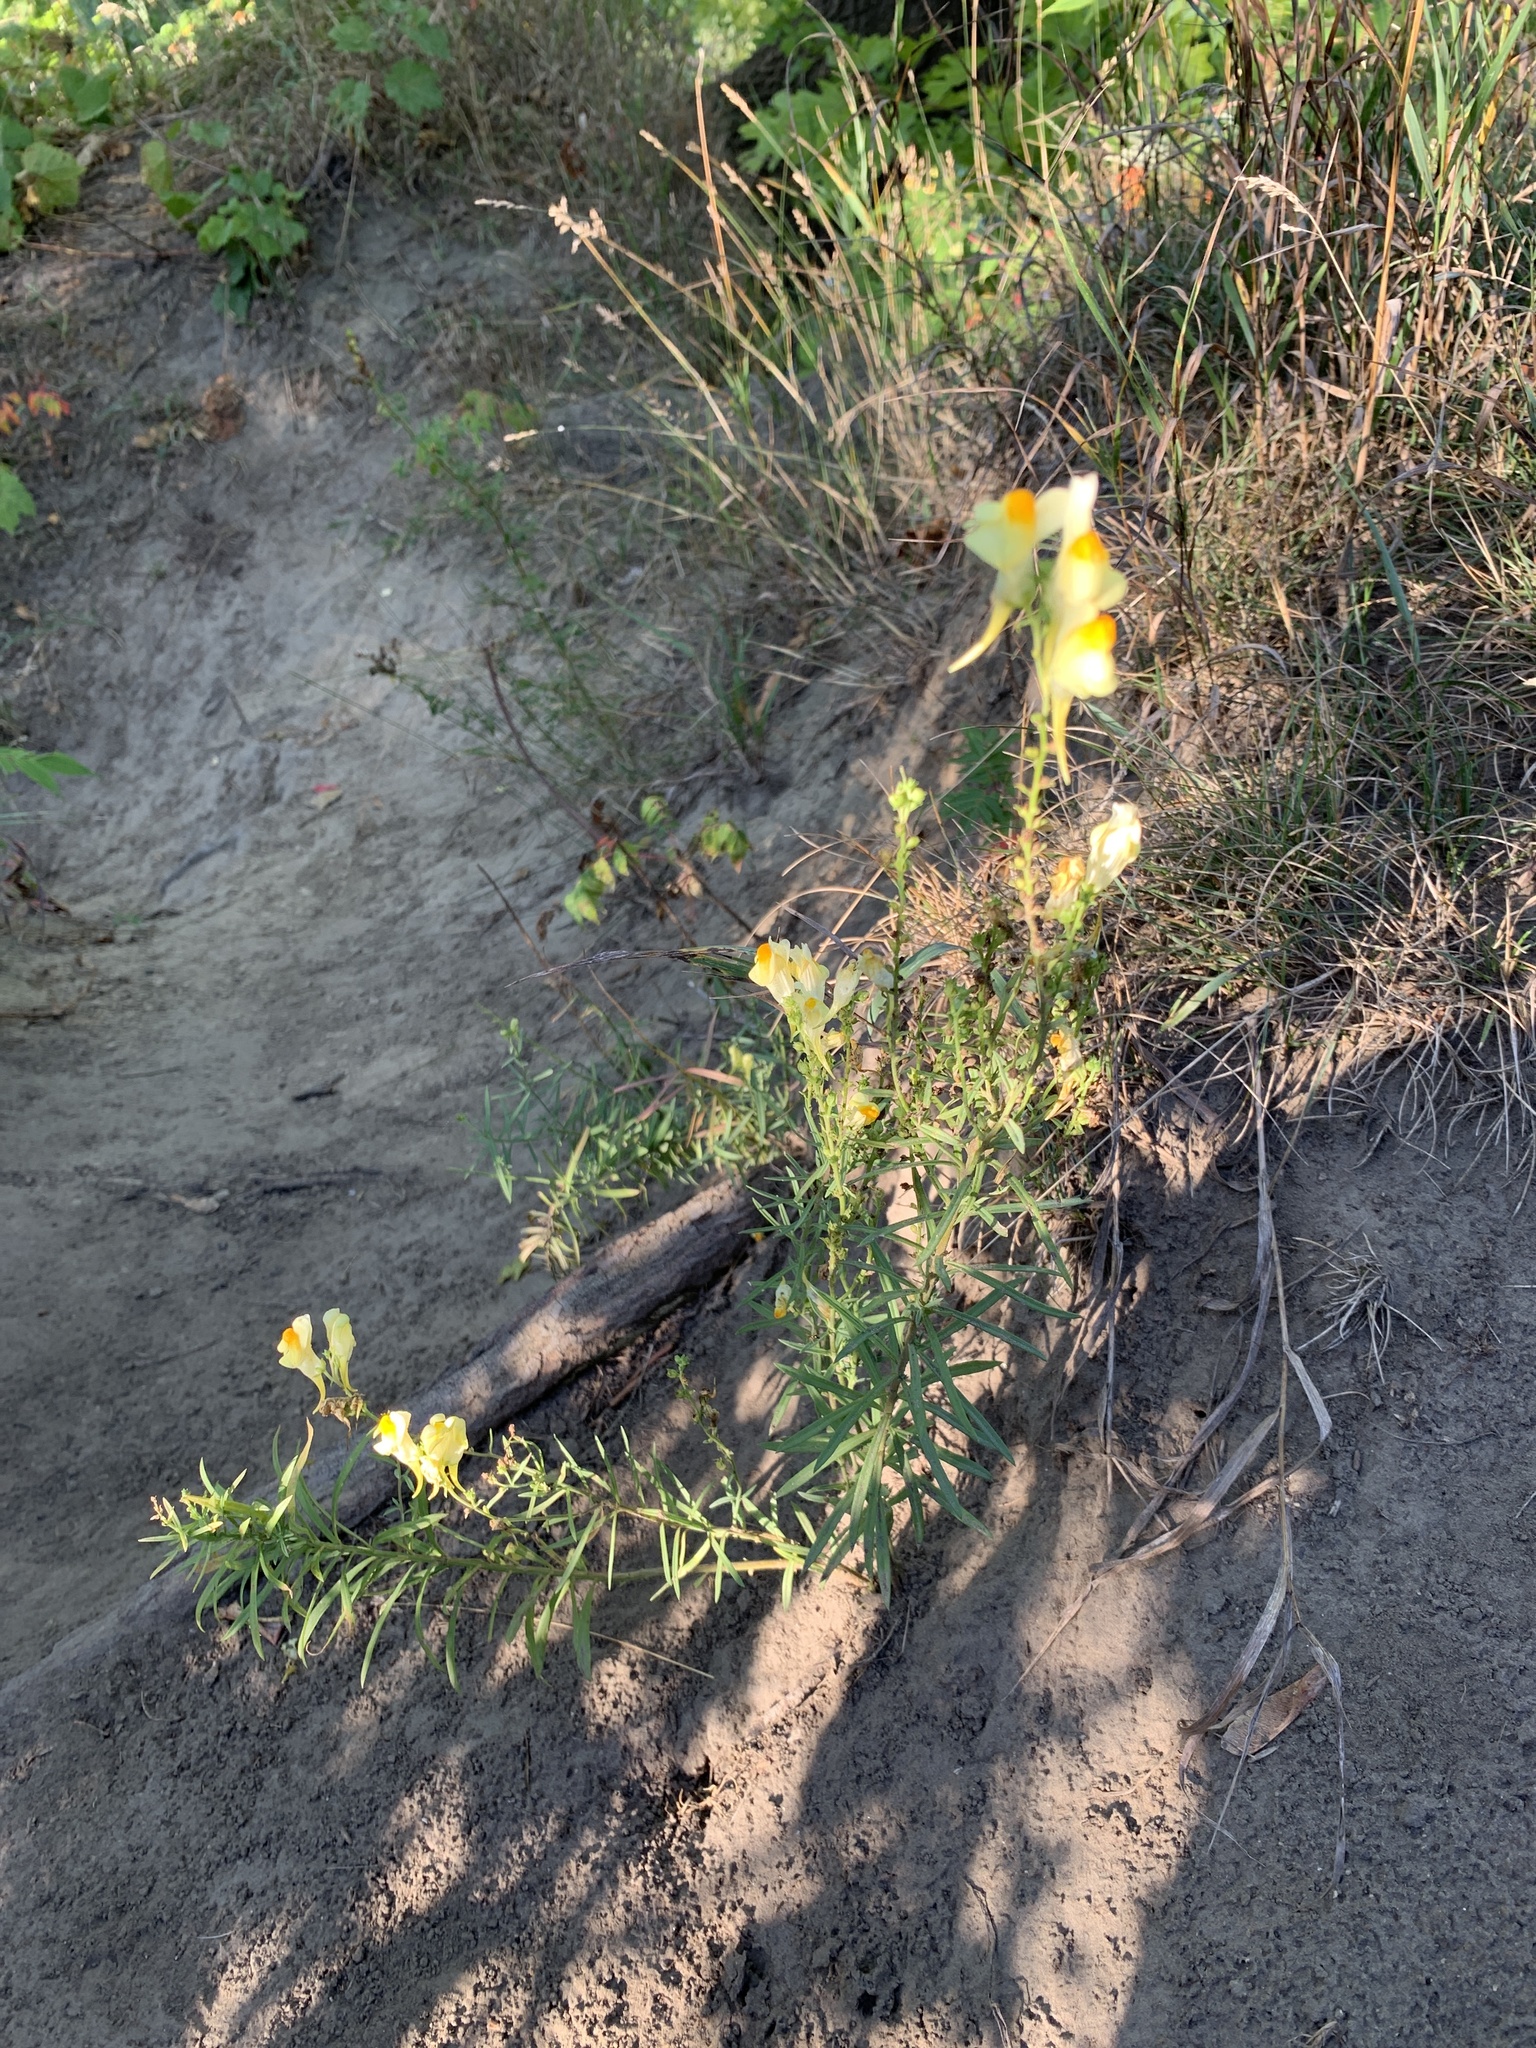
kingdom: Plantae
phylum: Tracheophyta
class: Magnoliopsida
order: Lamiales
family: Plantaginaceae
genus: Linaria
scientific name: Linaria vulgaris
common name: Butter and eggs
